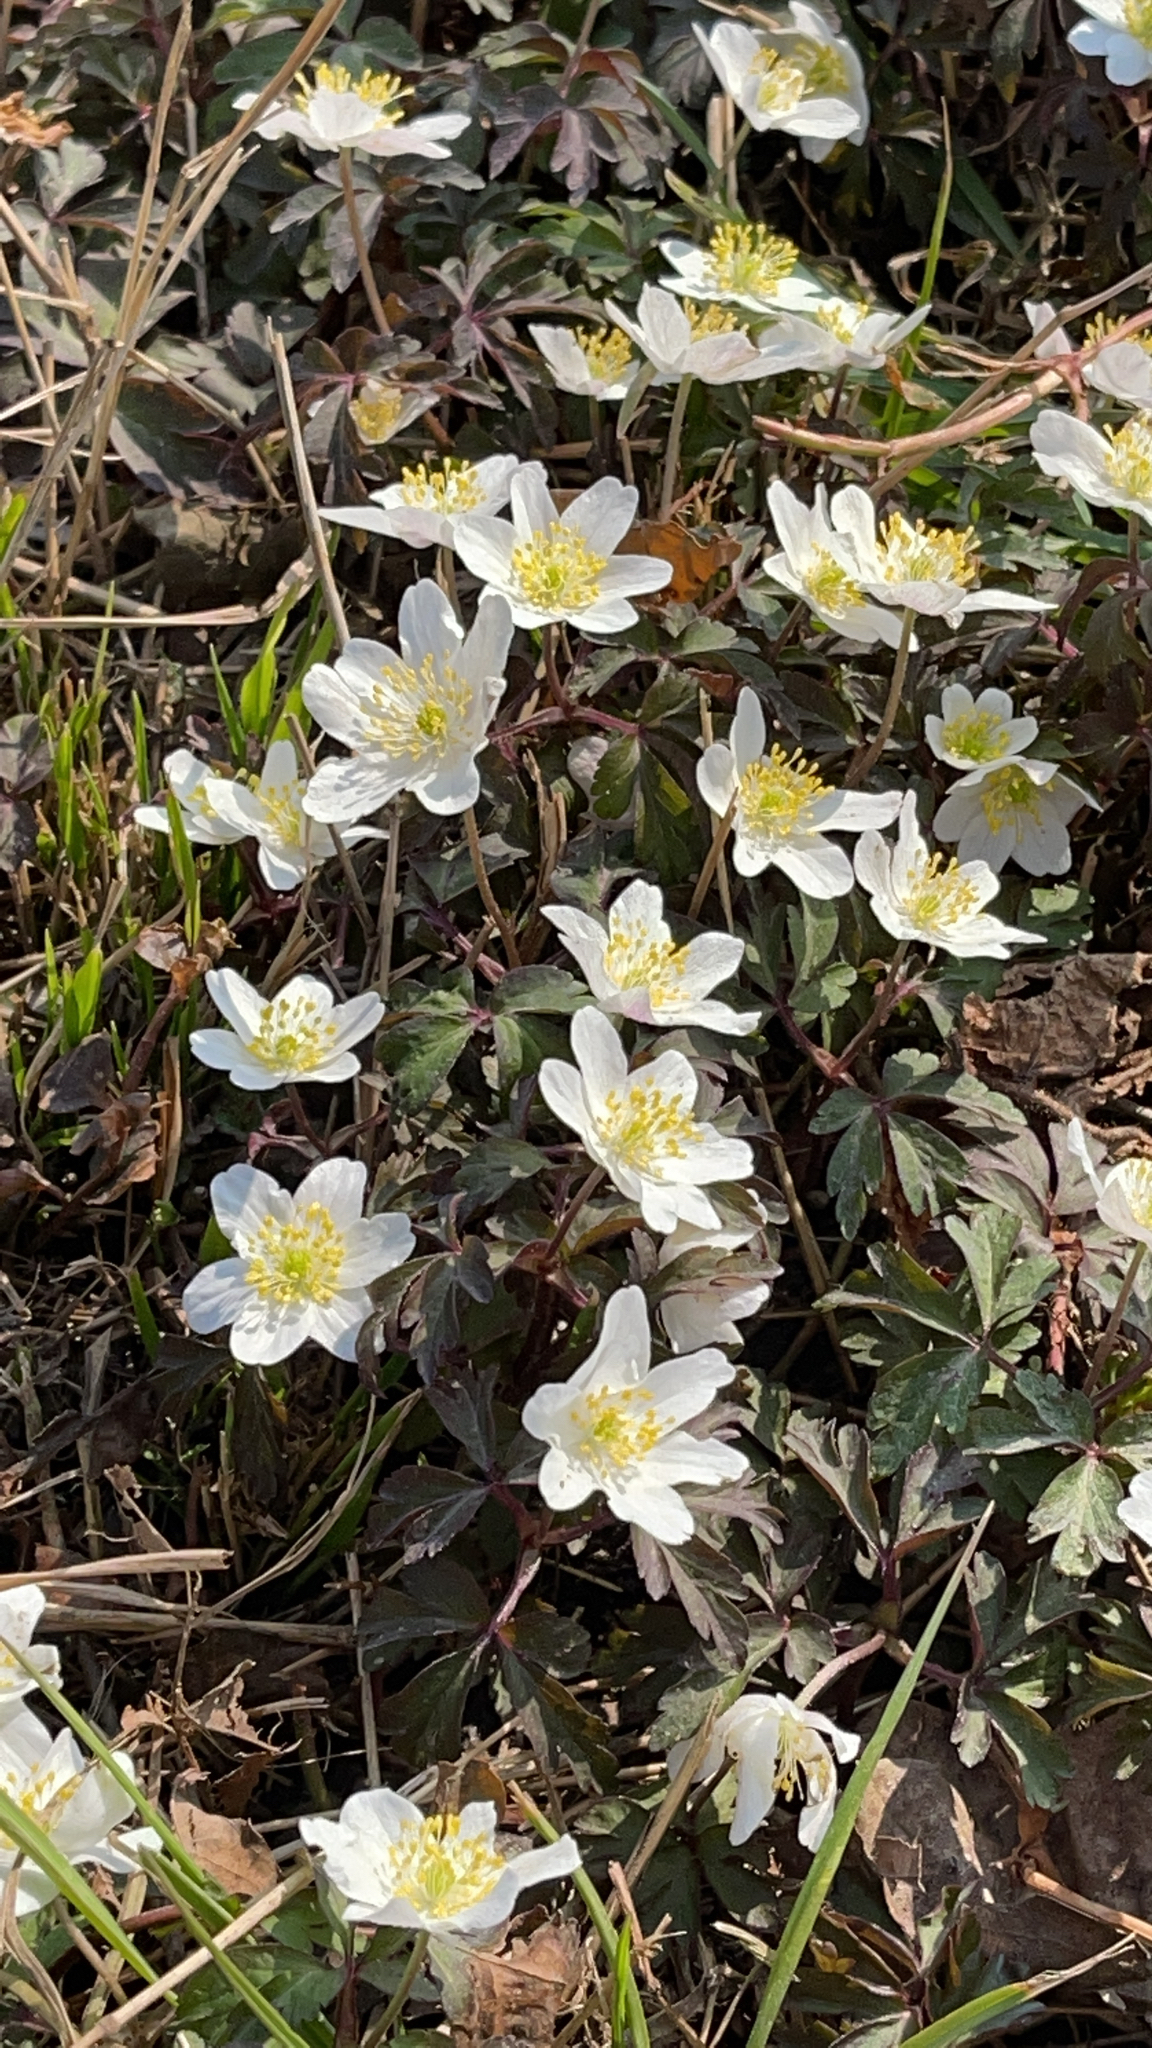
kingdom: Plantae
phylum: Tracheophyta
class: Magnoliopsida
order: Ranunculales
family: Ranunculaceae
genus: Anemone
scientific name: Anemone nemorosa
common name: Wood anemone
